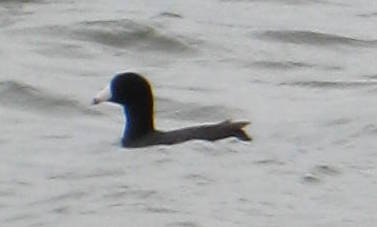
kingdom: Animalia
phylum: Chordata
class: Aves
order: Gruiformes
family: Rallidae
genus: Fulica
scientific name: Fulica americana
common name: American coot
